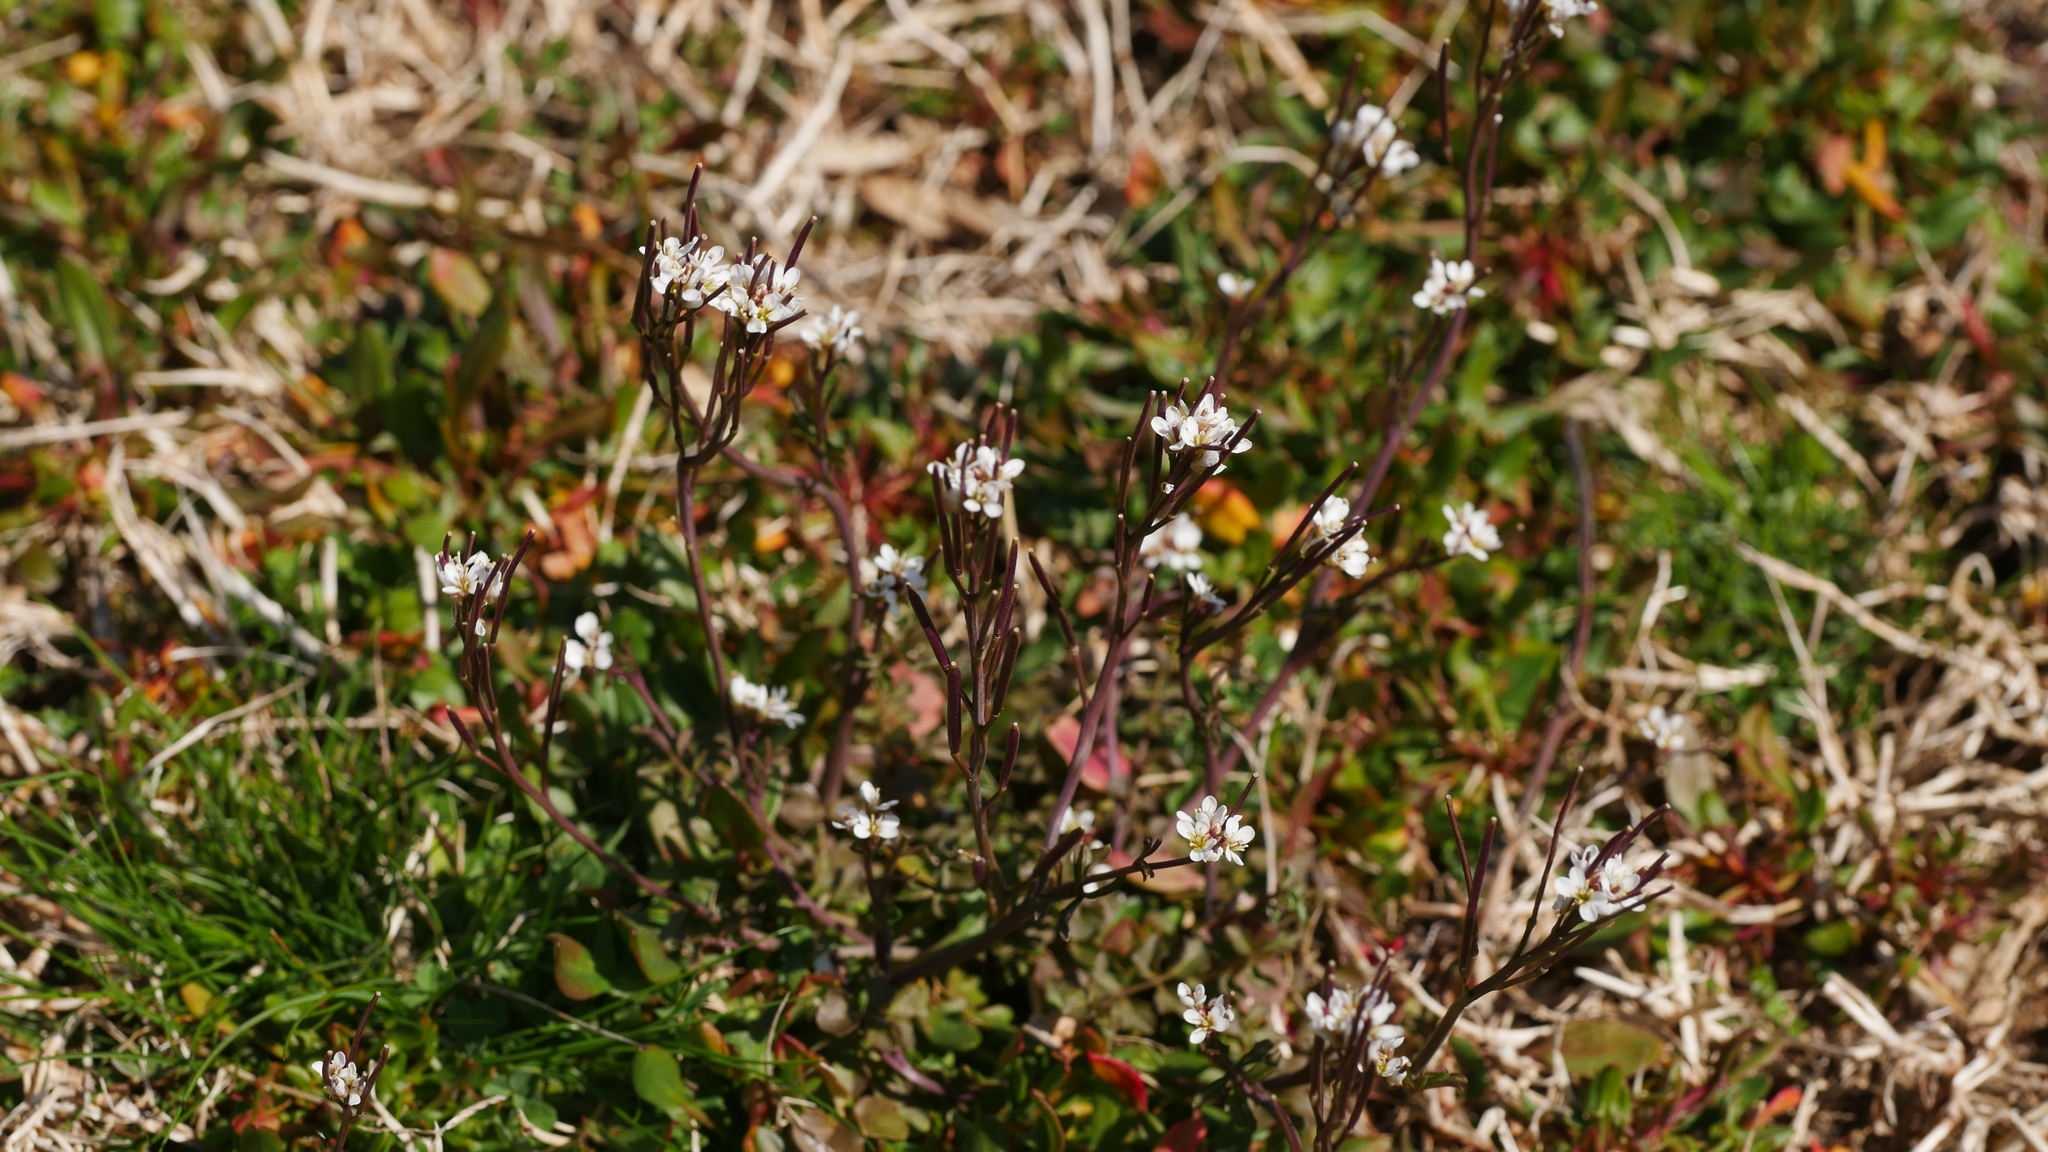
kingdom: Plantae
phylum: Tracheophyta
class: Magnoliopsida
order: Brassicales
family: Brassicaceae
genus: Cardamine
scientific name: Cardamine hirsuta
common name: Hairy bittercress
